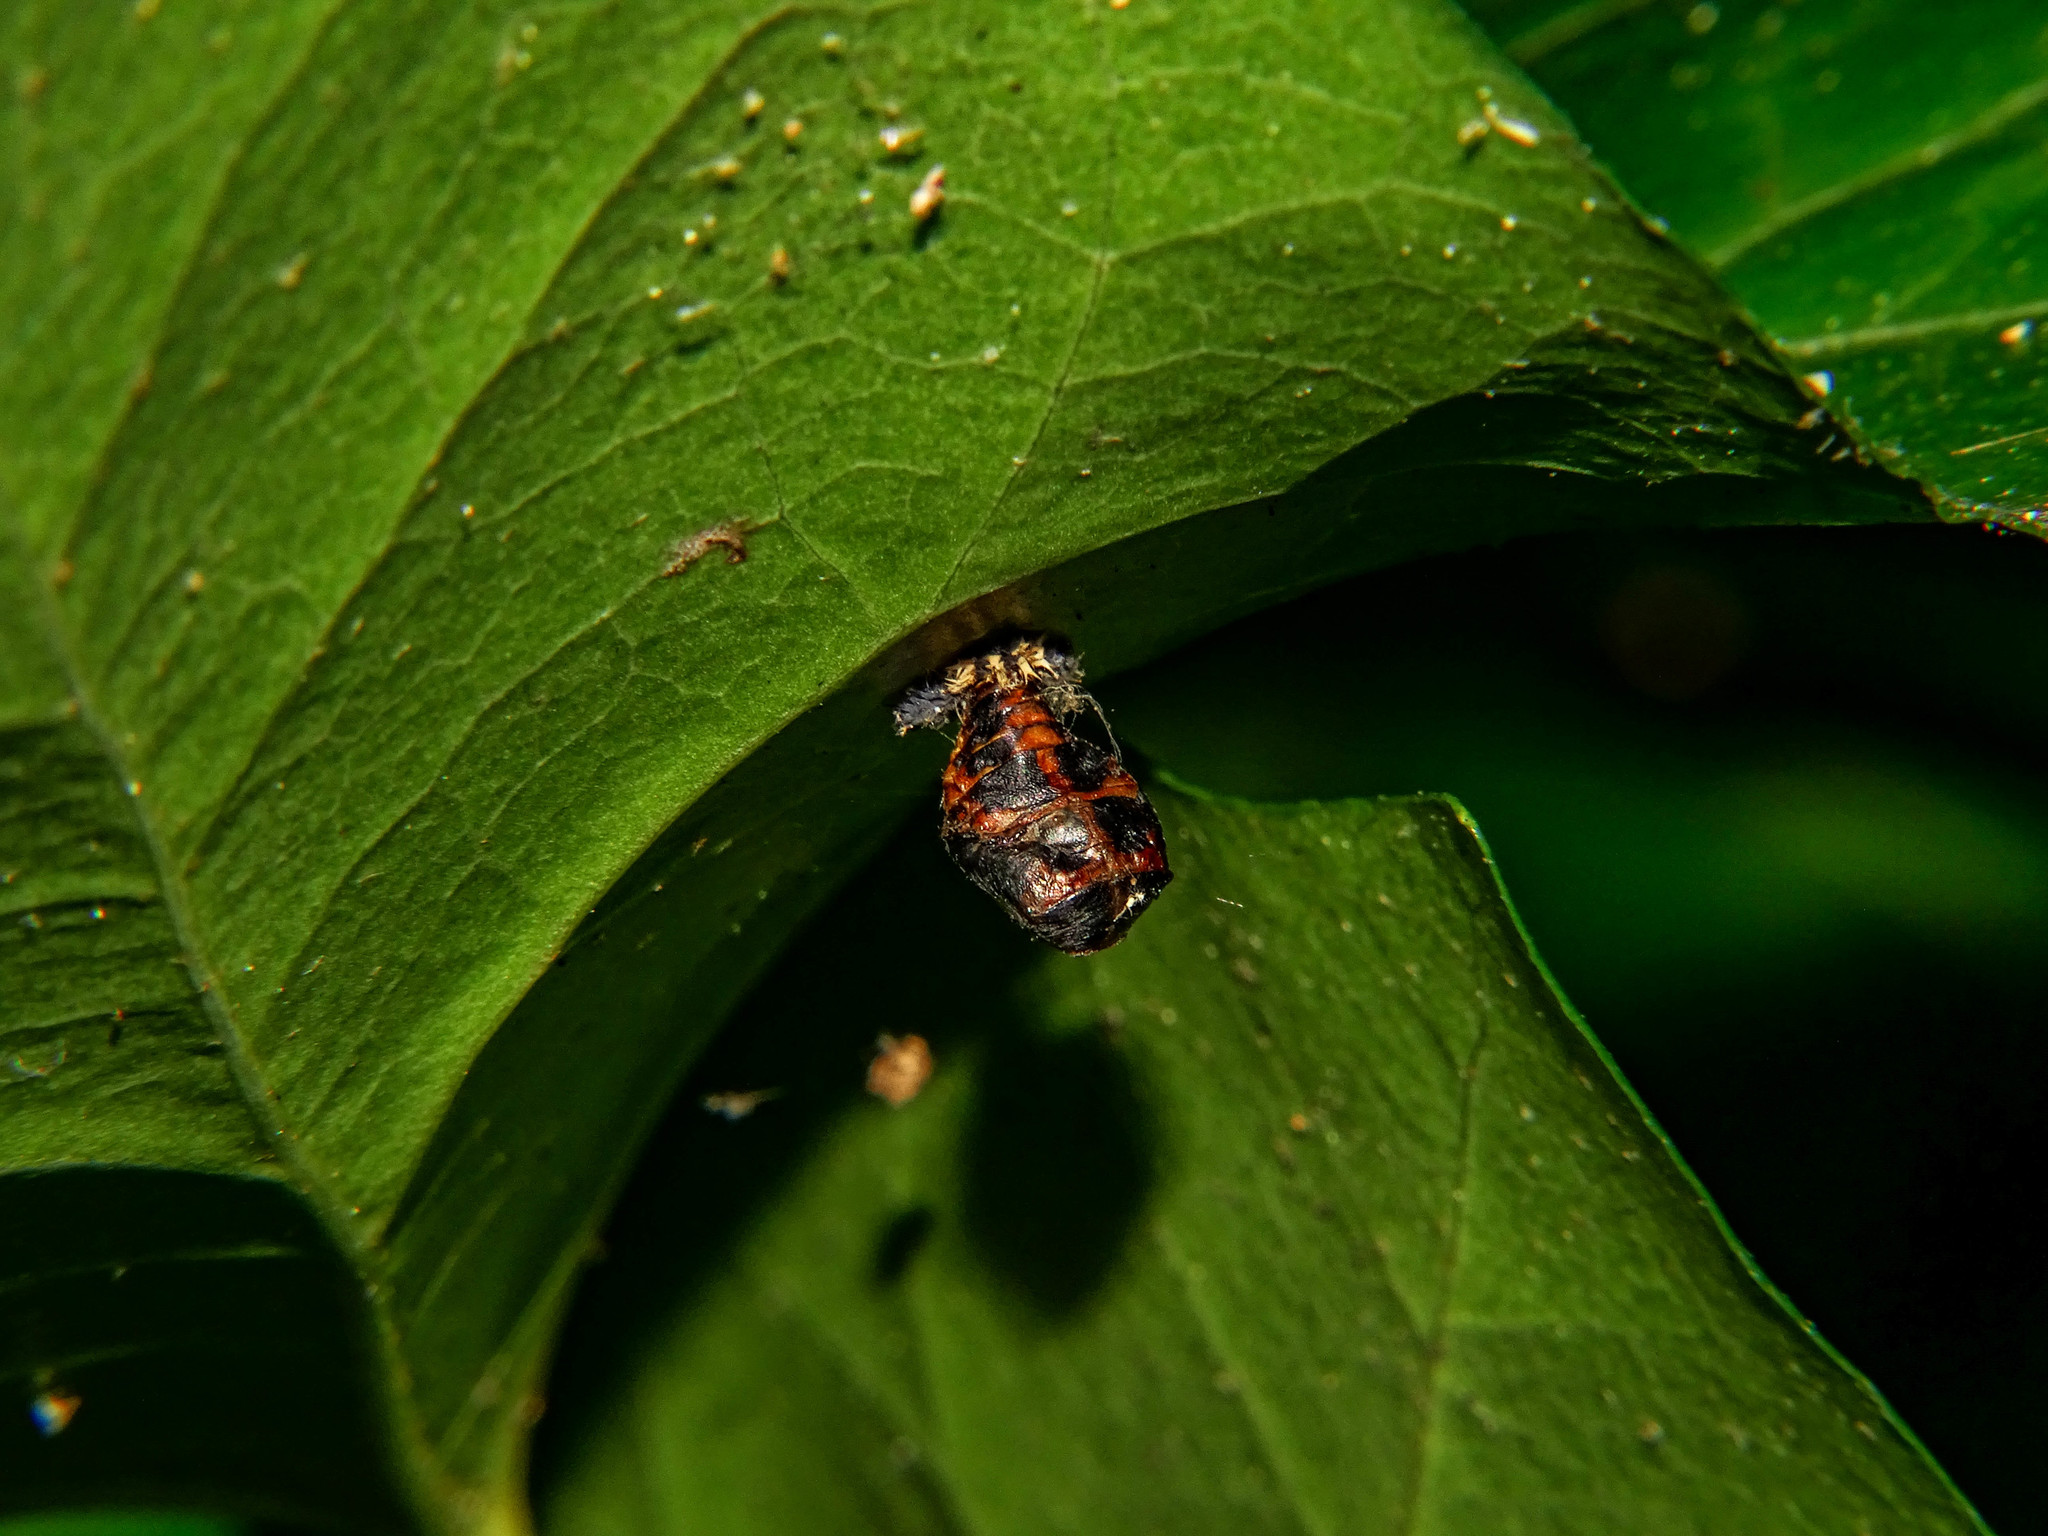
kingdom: Animalia
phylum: Arthropoda
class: Insecta
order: Coleoptera
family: Coccinellidae
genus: Harmonia
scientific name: Harmonia axyridis
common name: Harlequin ladybird
